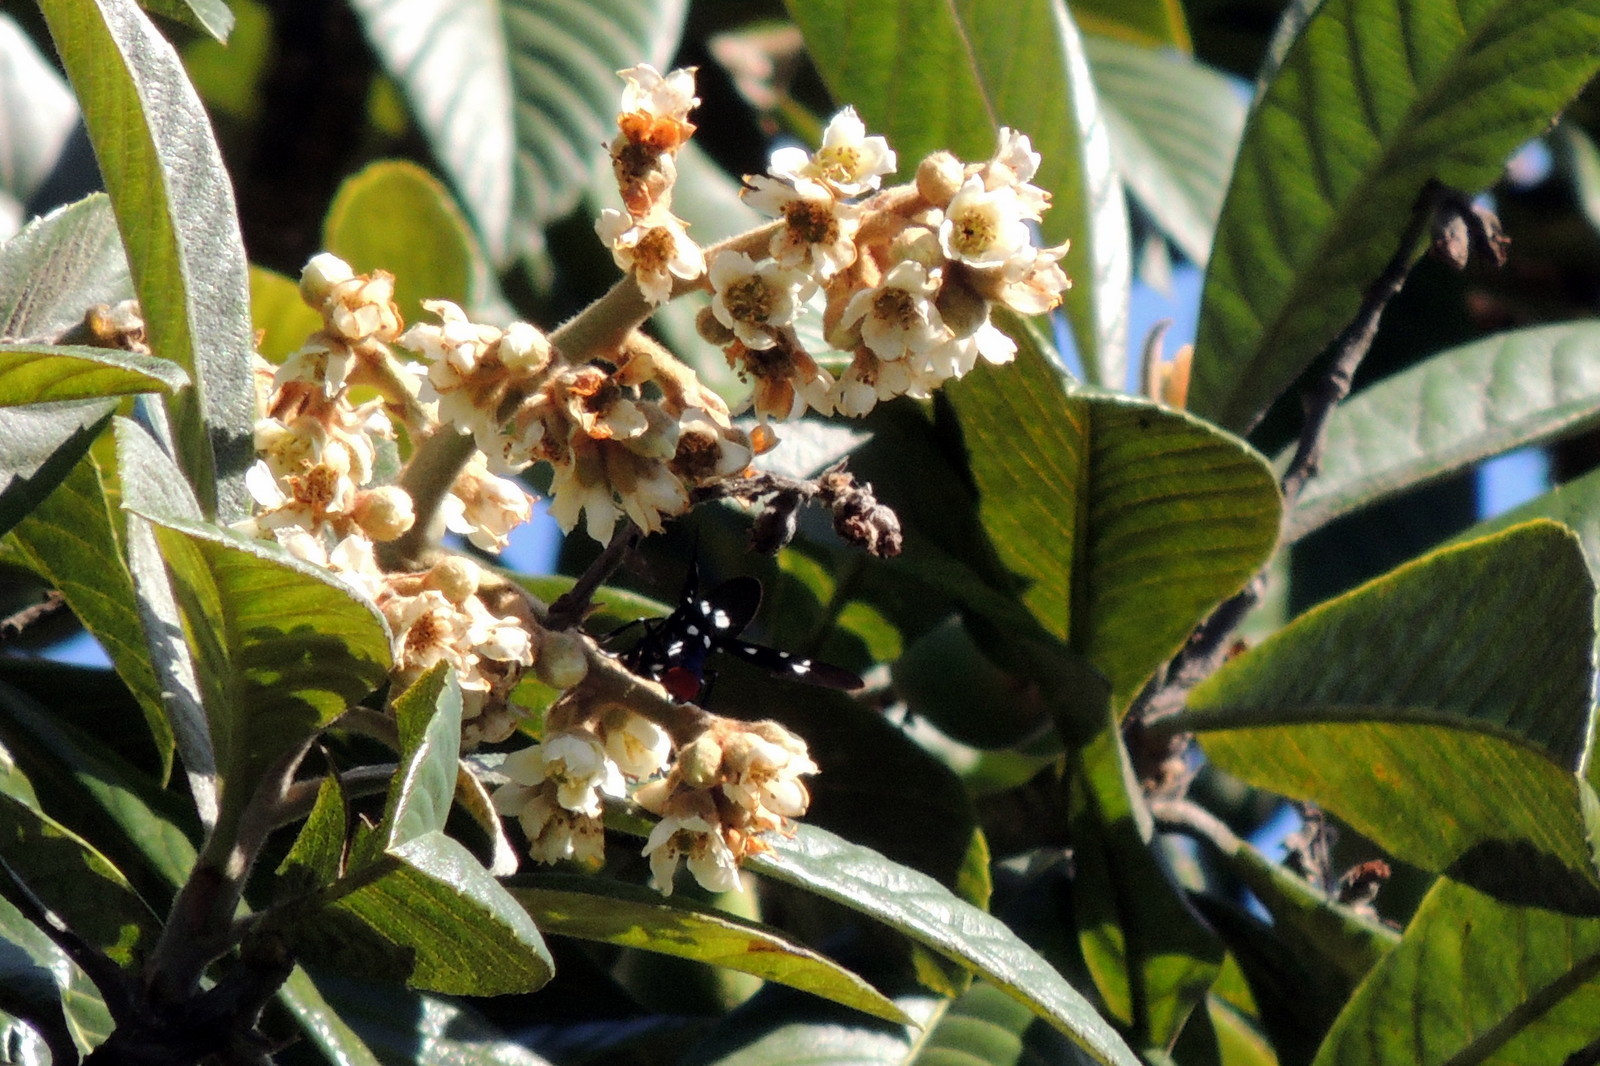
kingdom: Animalia
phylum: Arthropoda
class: Insecta
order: Lepidoptera
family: Erebidae
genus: Syntomeida
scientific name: Syntomeida epilais
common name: Polka-dot wasp moth
